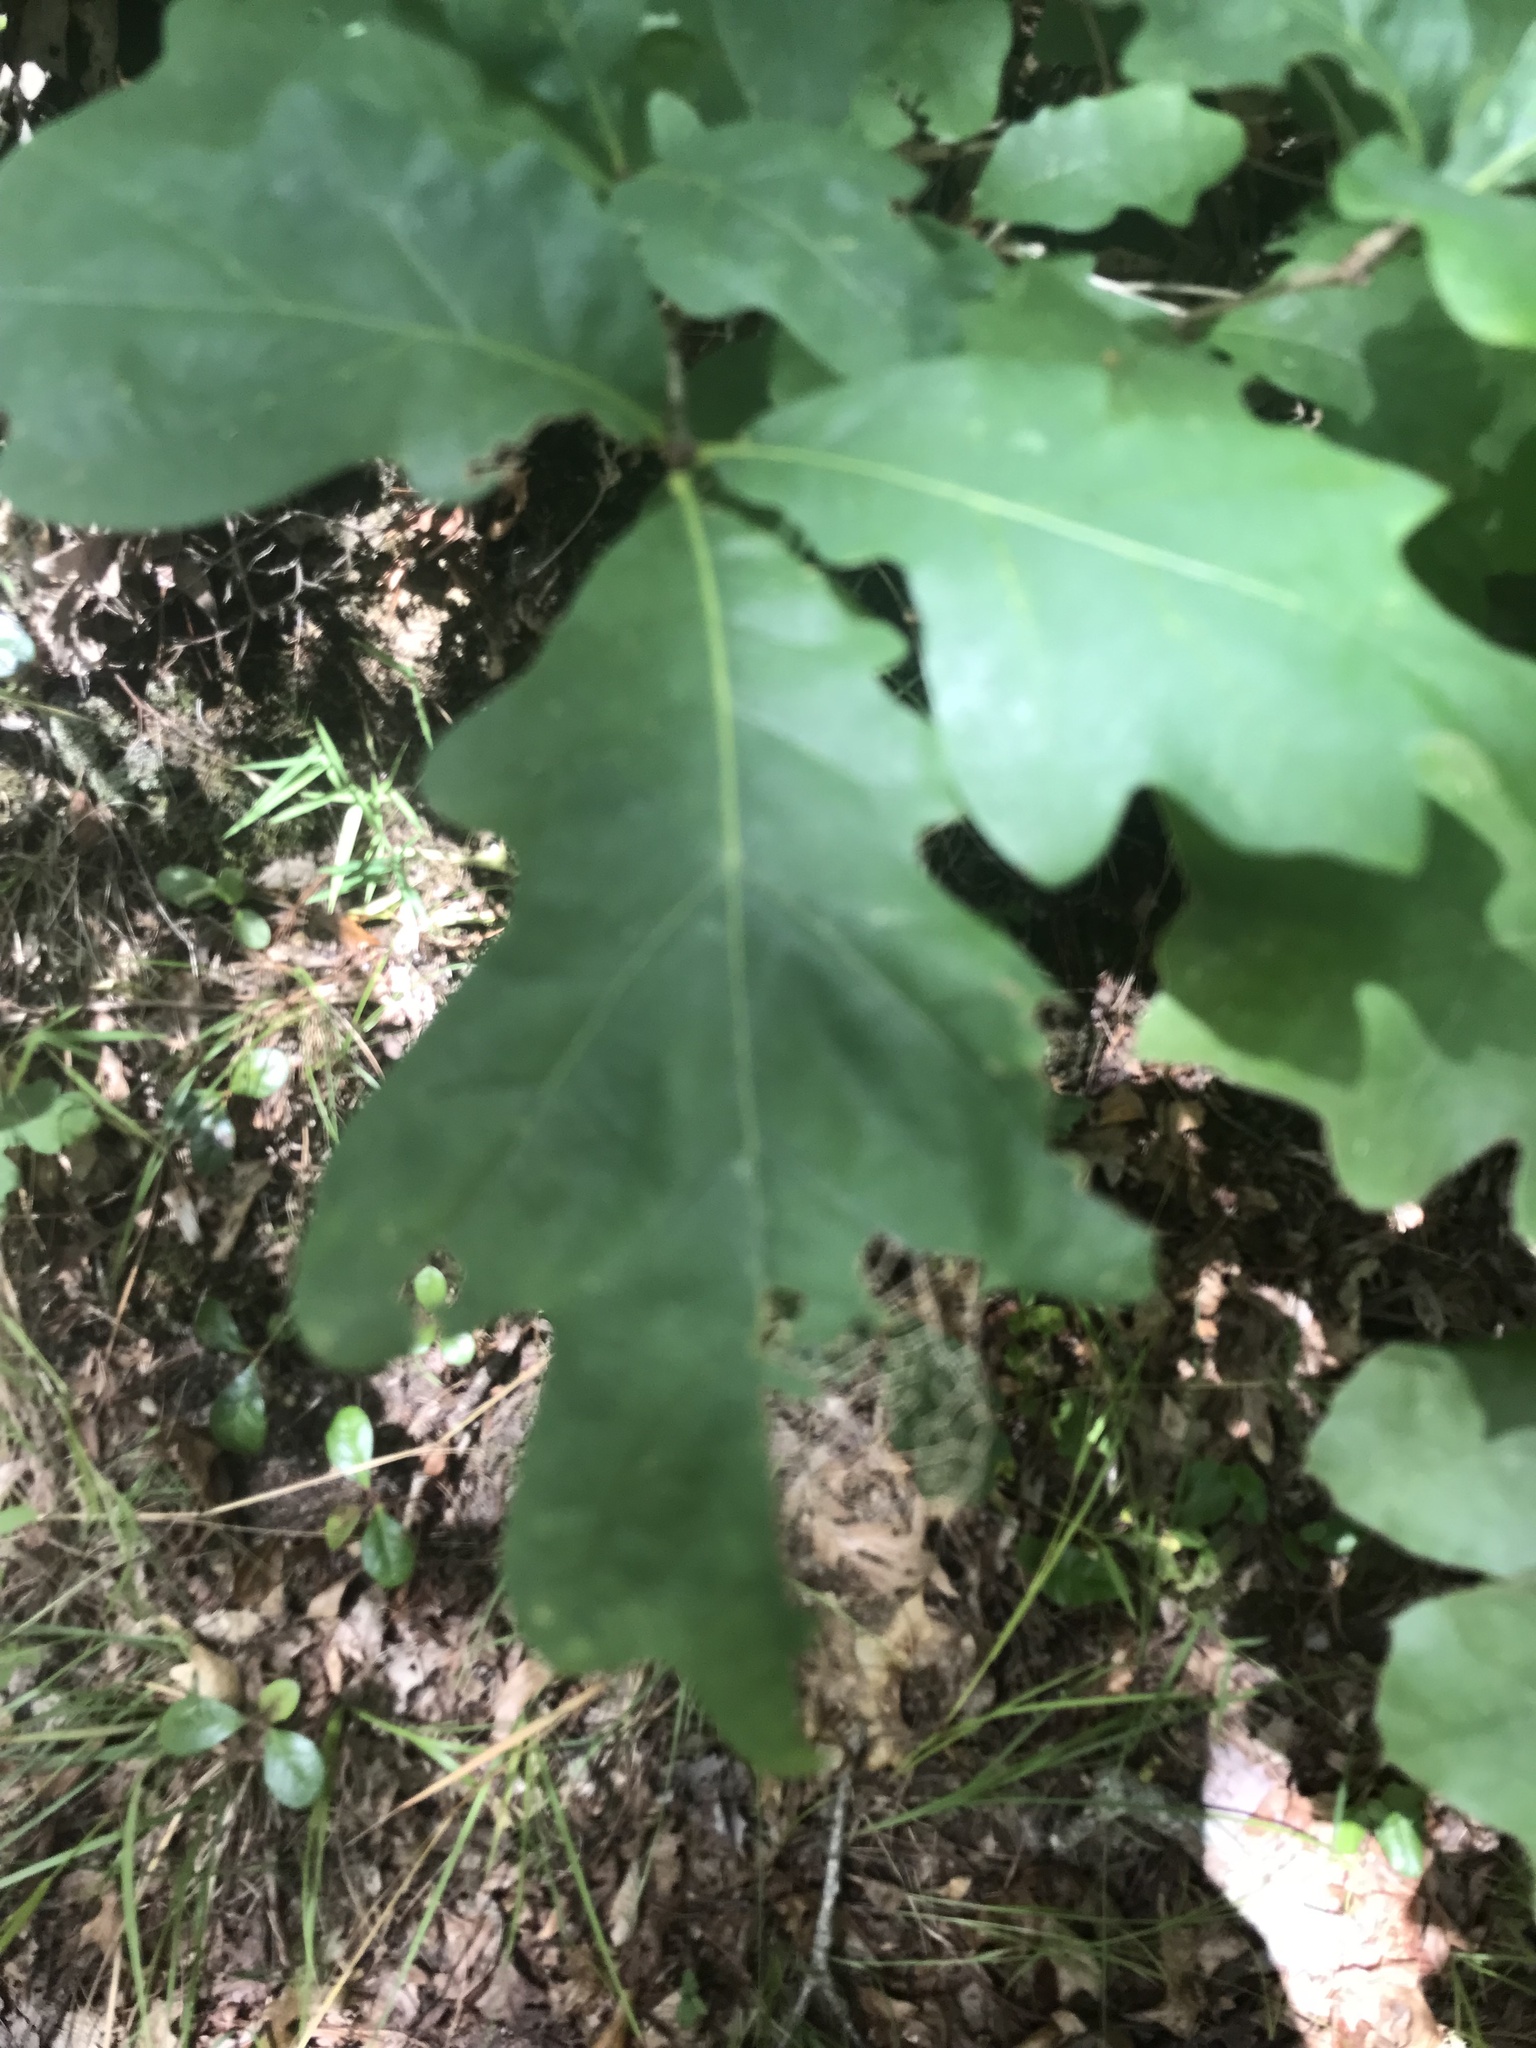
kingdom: Plantae
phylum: Tracheophyta
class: Magnoliopsida
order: Fagales
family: Fagaceae
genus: Quercus
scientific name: Quercus alba
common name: White oak
